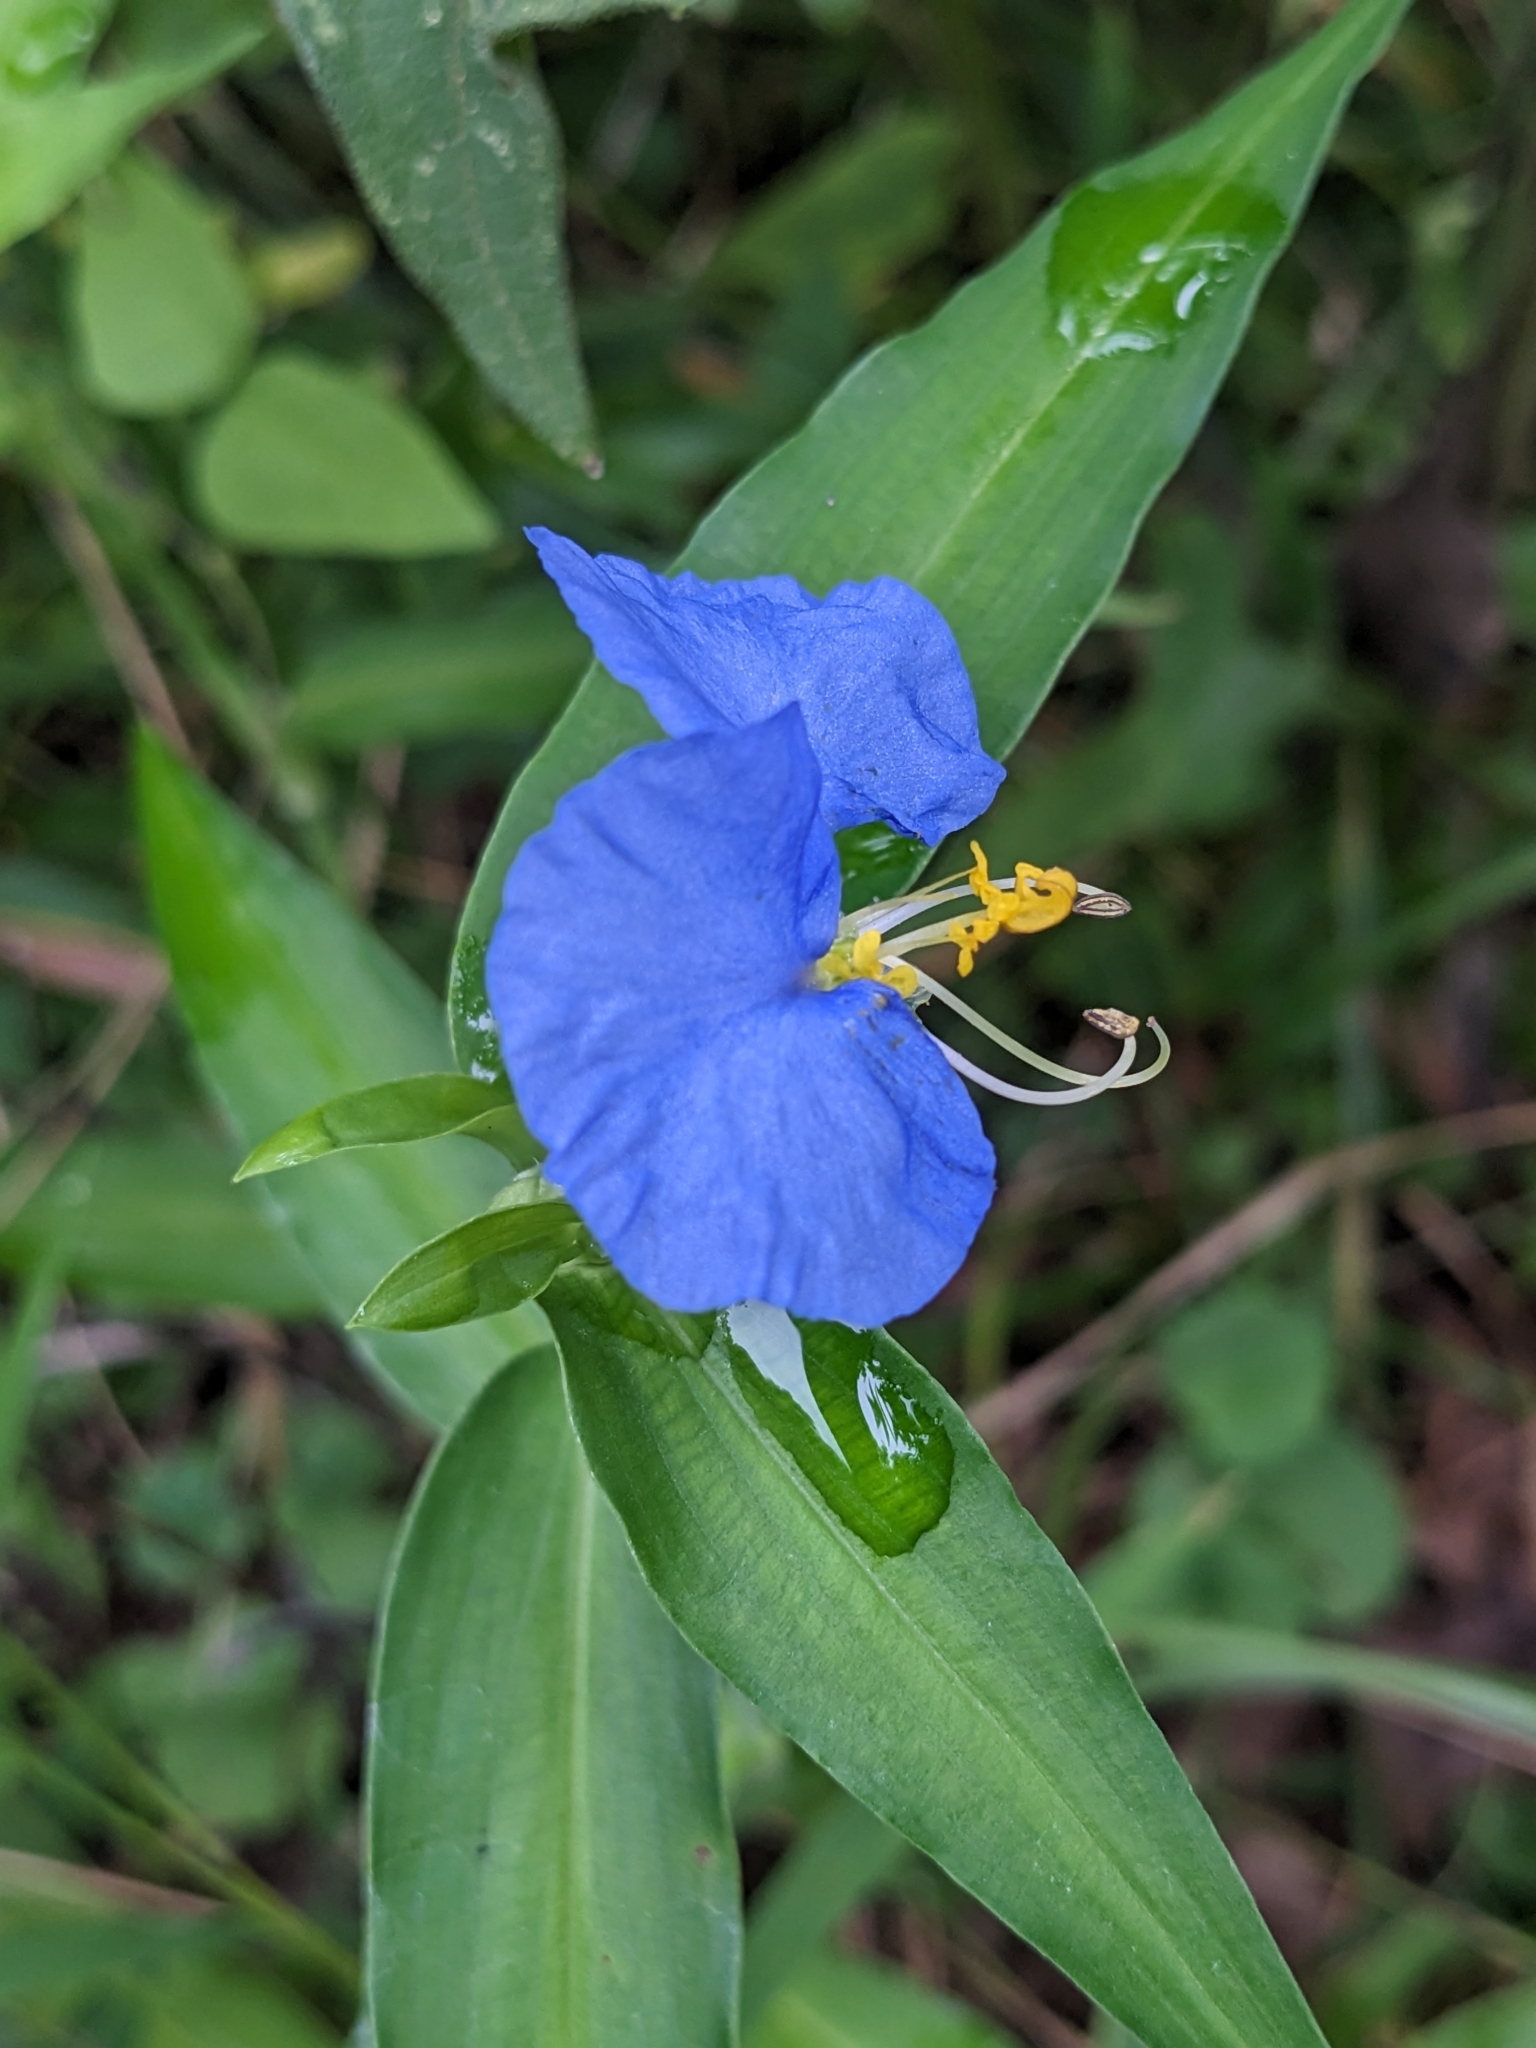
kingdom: Plantae
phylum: Tracheophyta
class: Liliopsida
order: Commelinales
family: Commelinaceae
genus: Commelina
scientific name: Commelina erecta
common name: Blousel blommetjie
